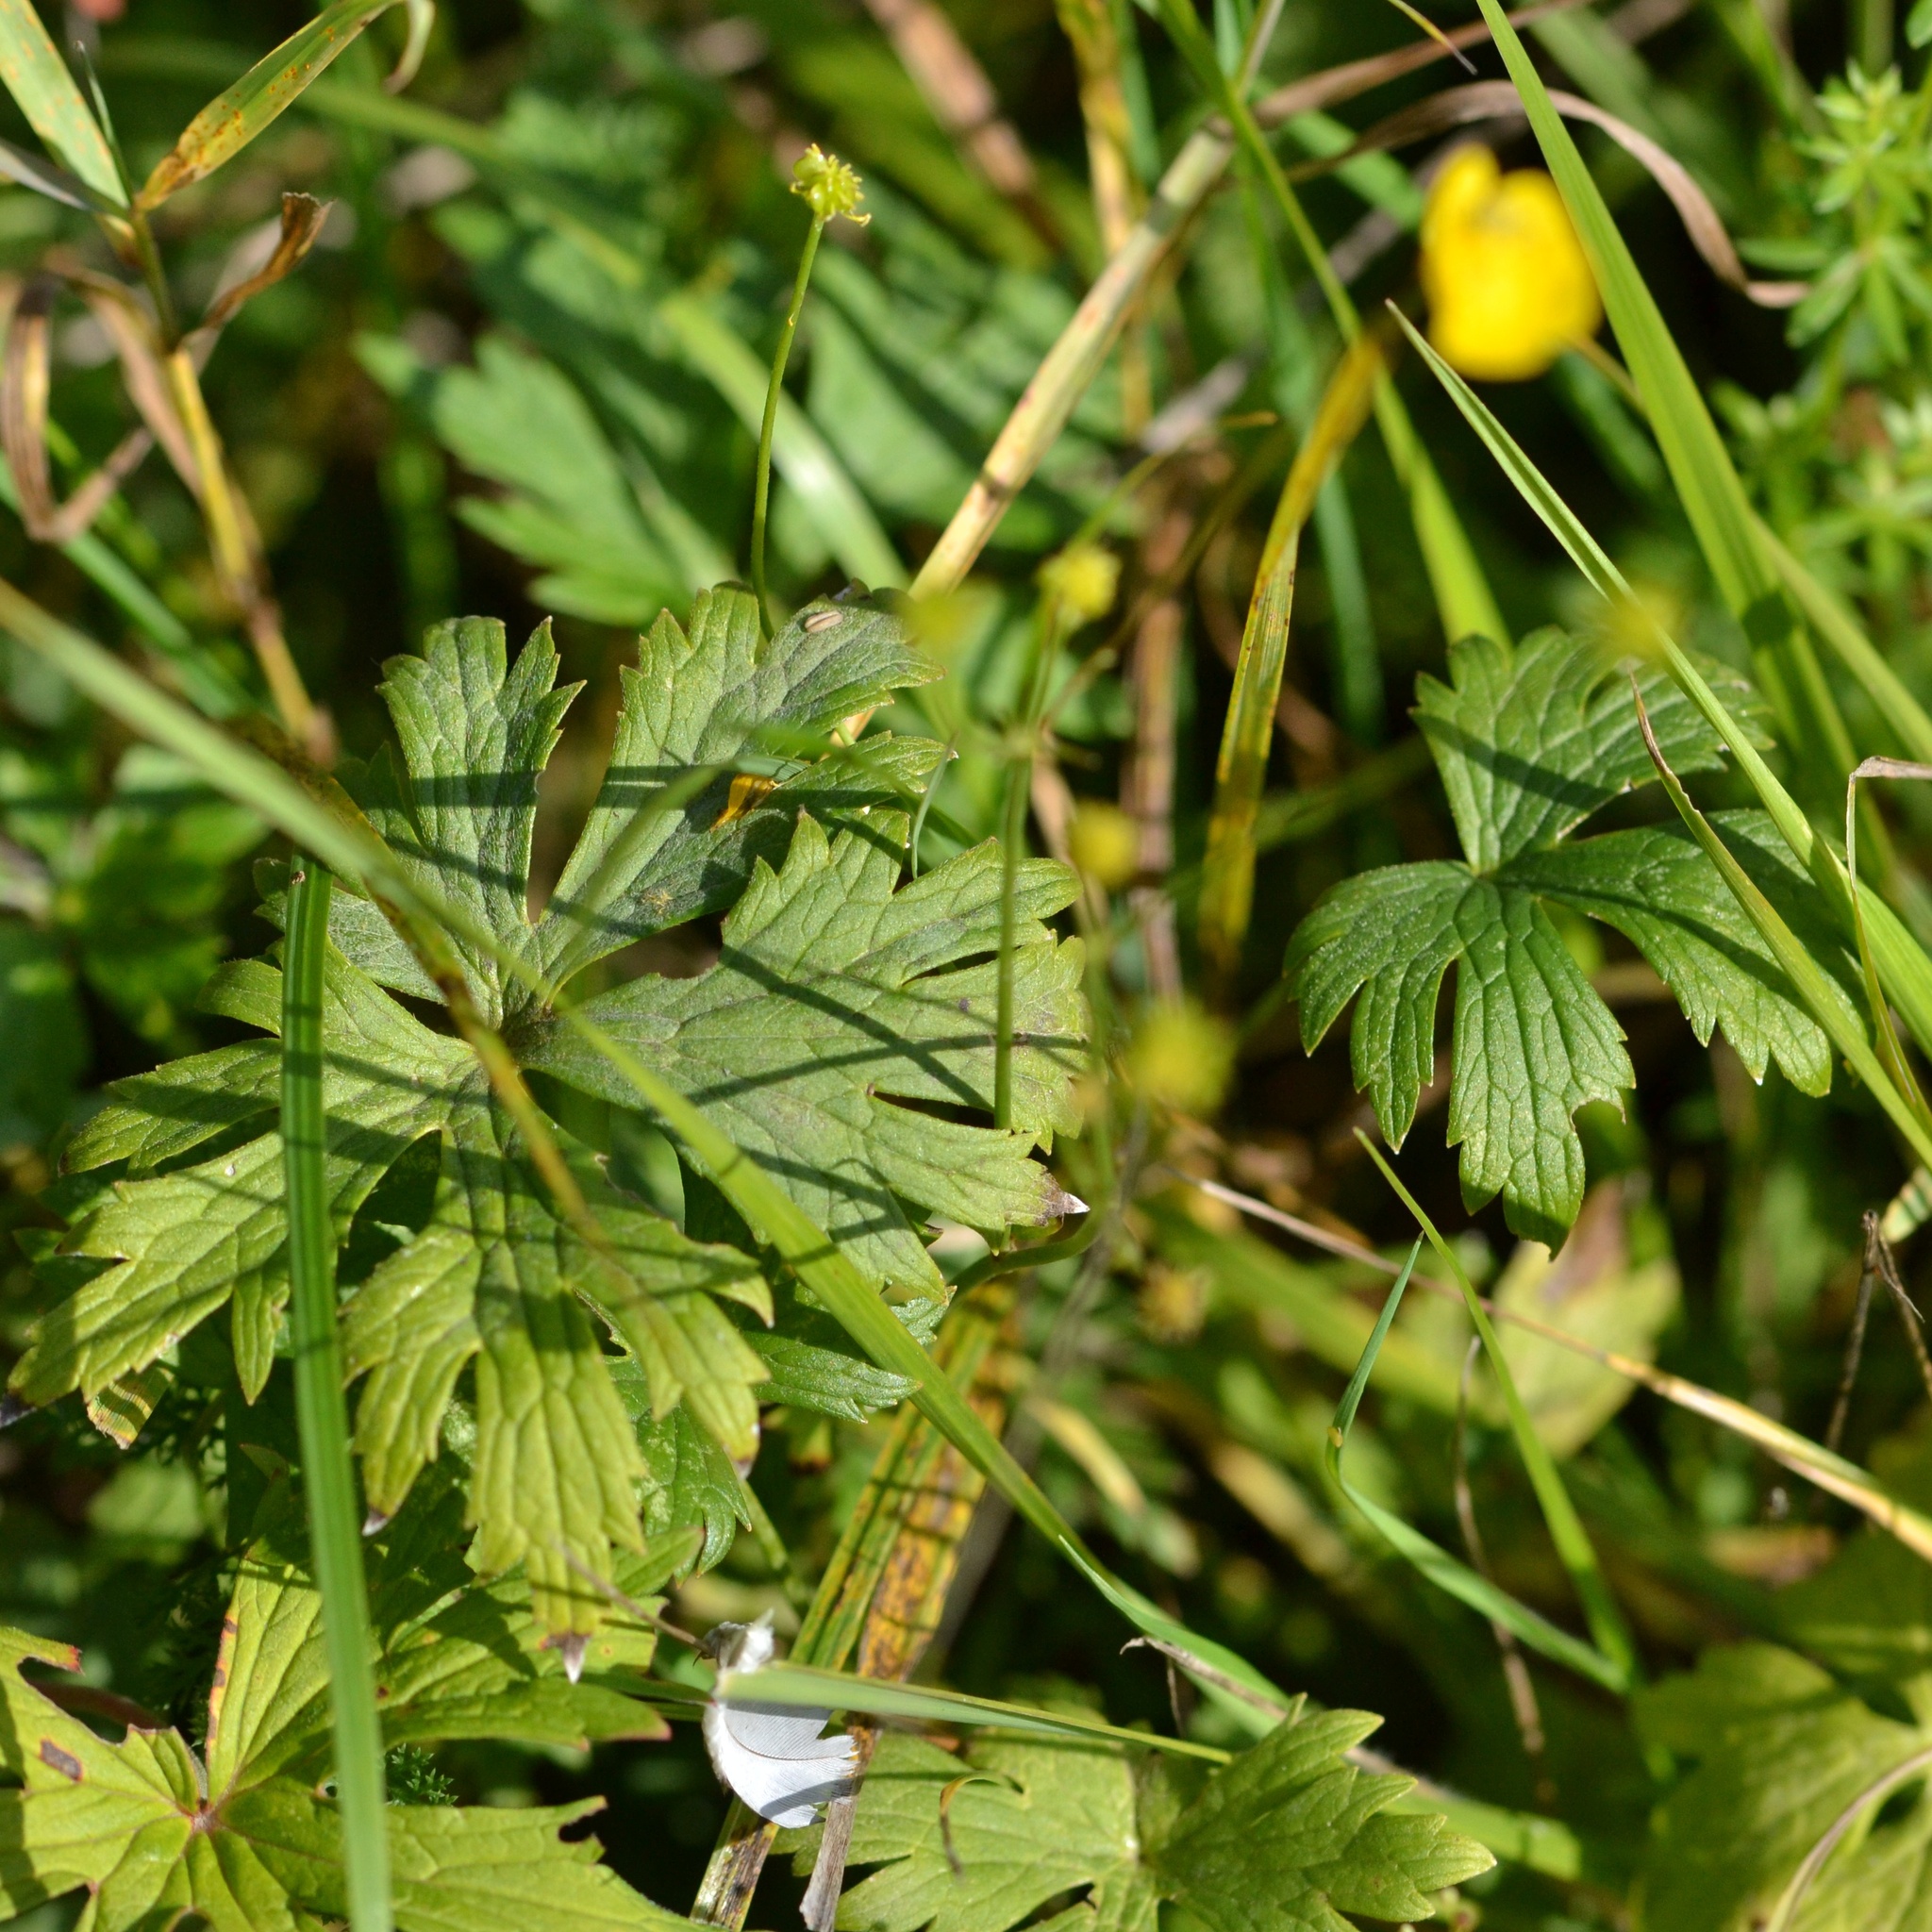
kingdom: Plantae
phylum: Tracheophyta
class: Magnoliopsida
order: Ranunculales
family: Ranunculaceae
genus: Ranunculus
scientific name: Ranunculus acris
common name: Meadow buttercup
